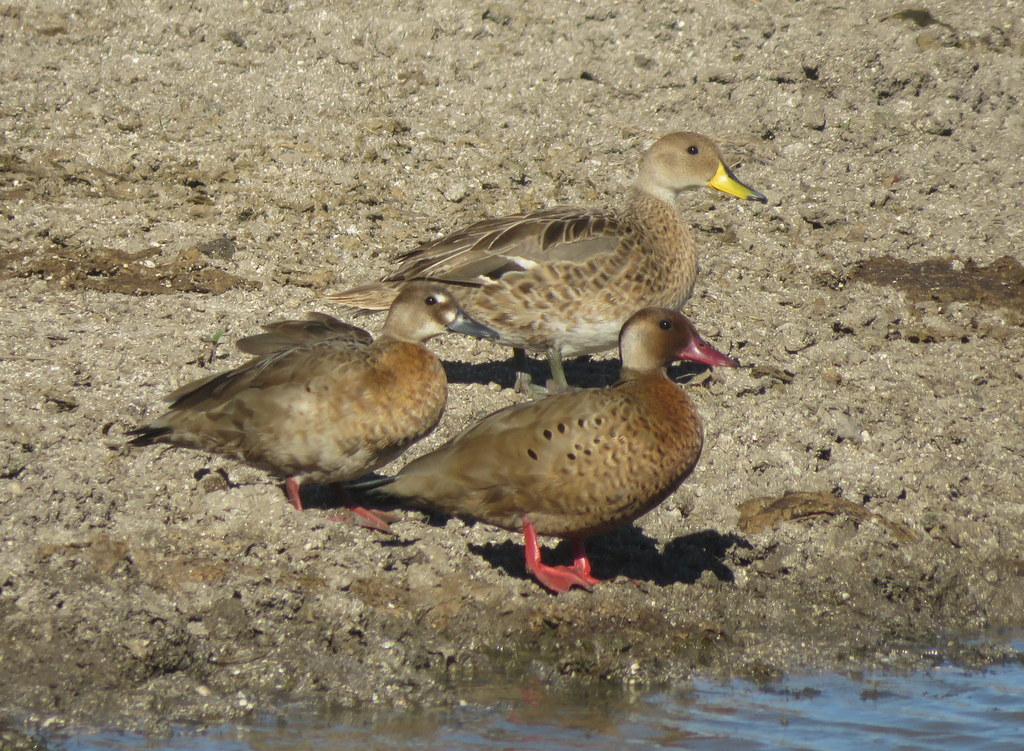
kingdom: Animalia
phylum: Chordata
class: Aves
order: Anseriformes
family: Anatidae
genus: Amazonetta
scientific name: Amazonetta brasiliensis
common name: Brazilian teal
